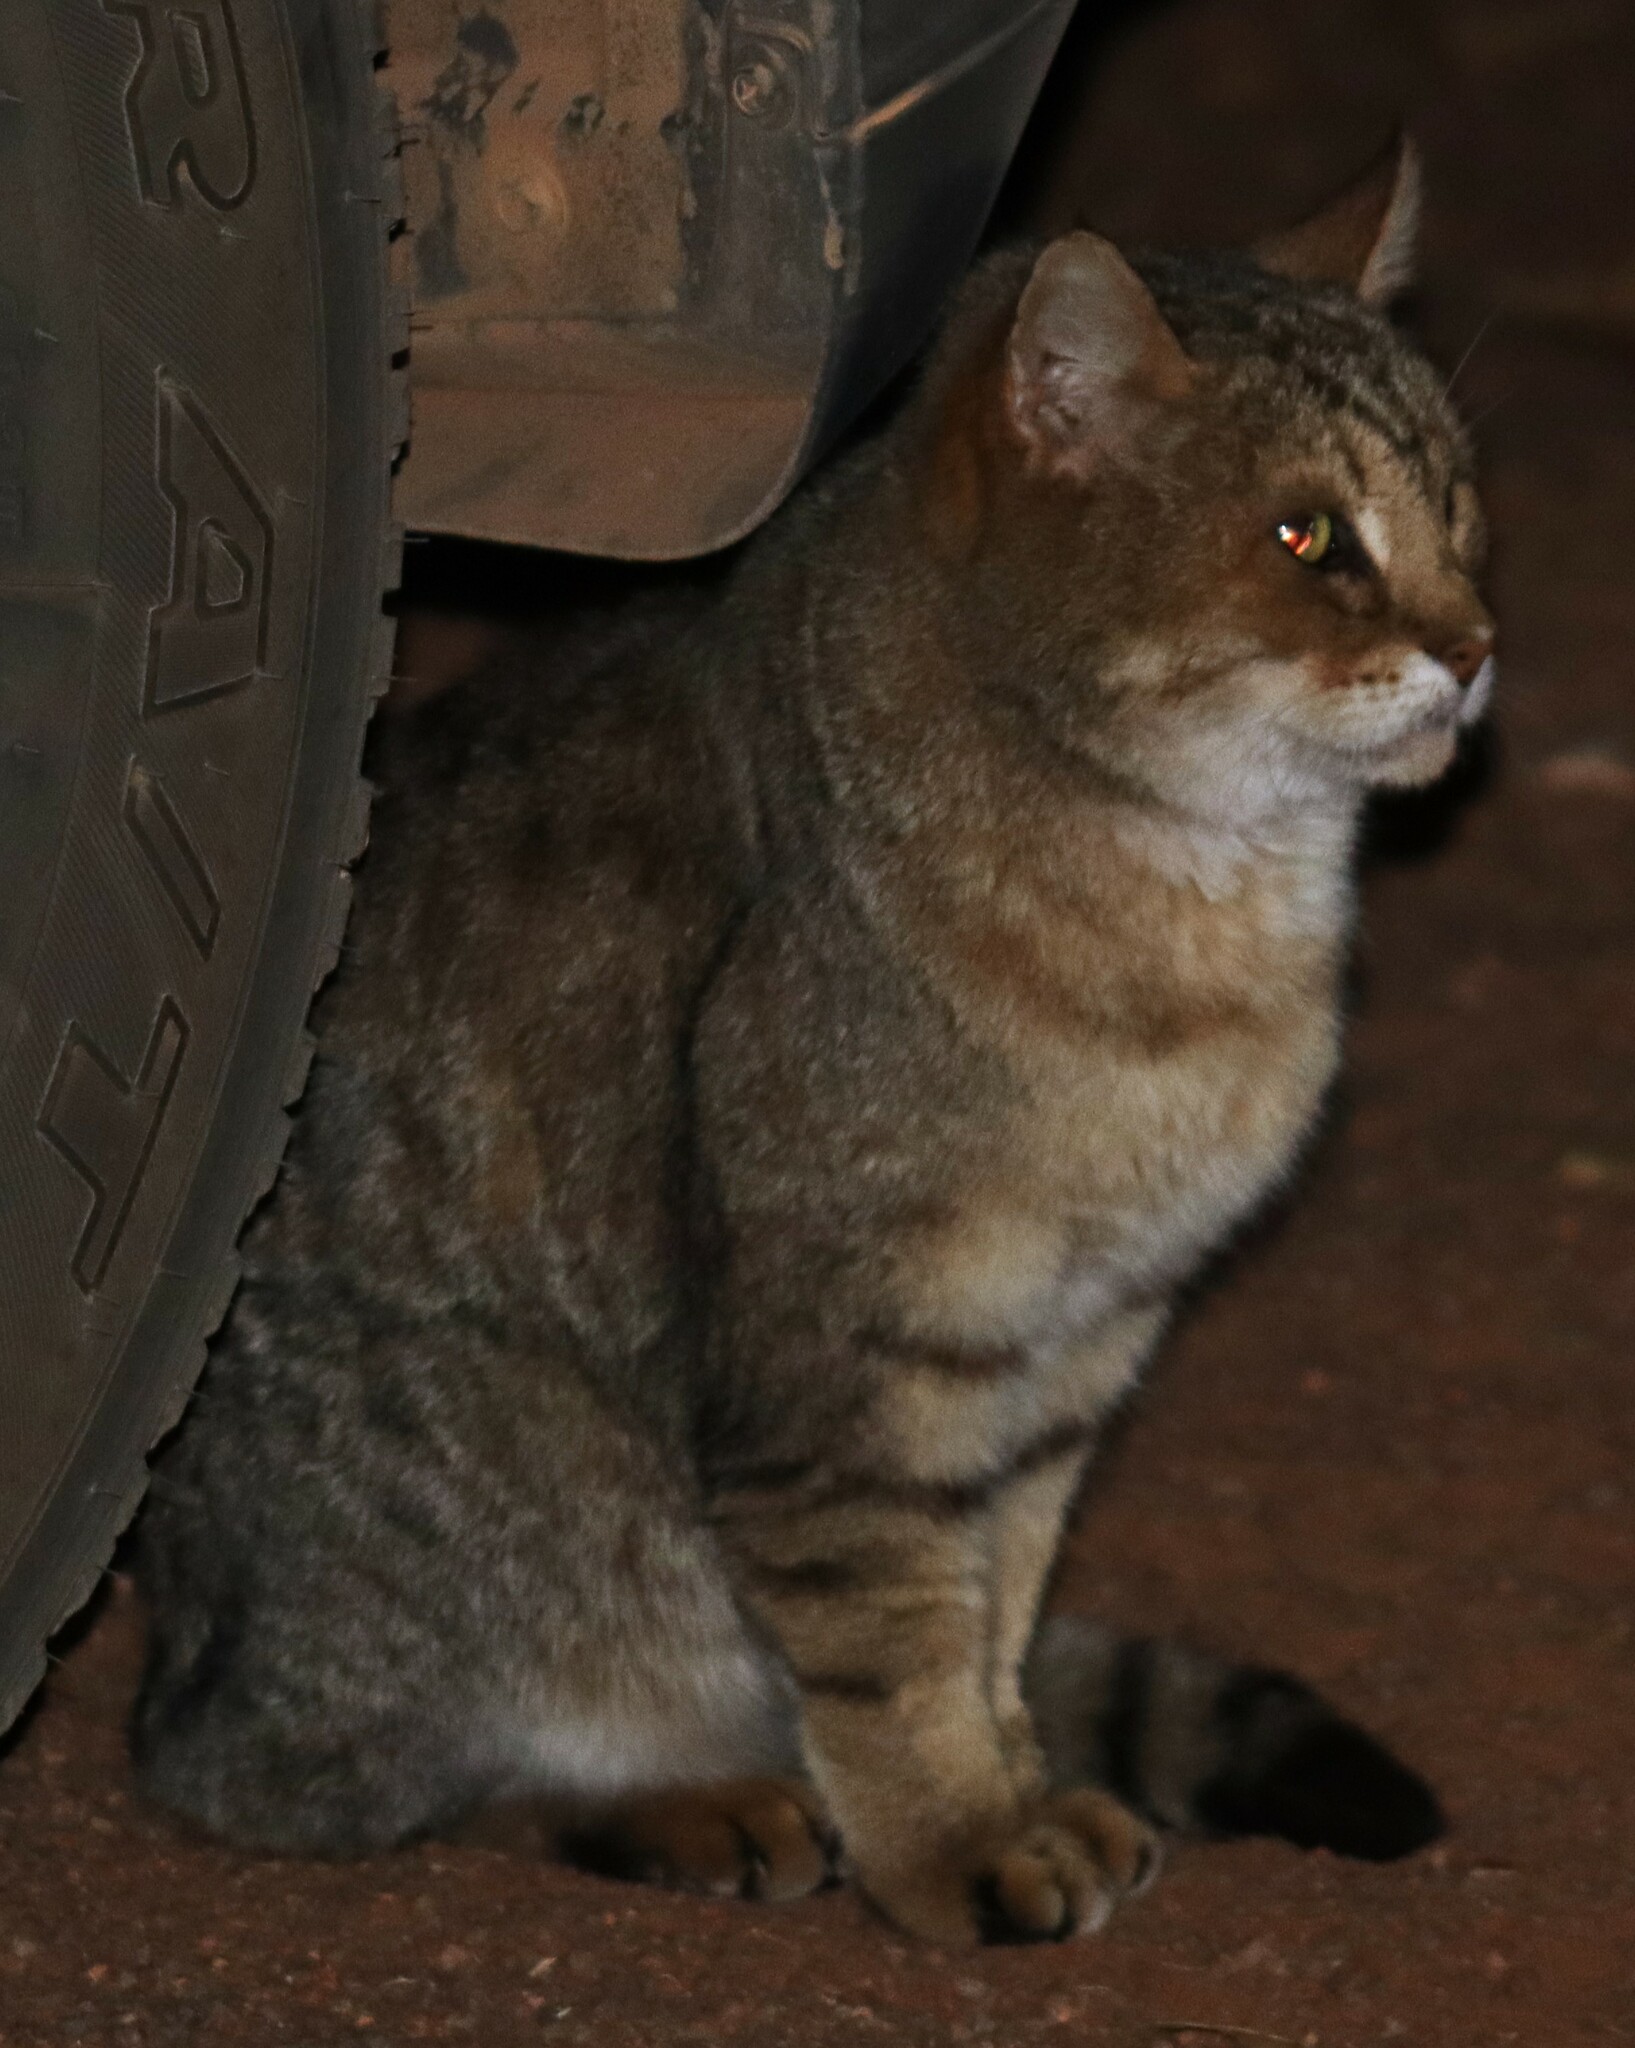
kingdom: Animalia
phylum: Chordata
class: Mammalia
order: Carnivora
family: Felidae
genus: Felis
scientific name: Felis catus
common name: Domestic cat
